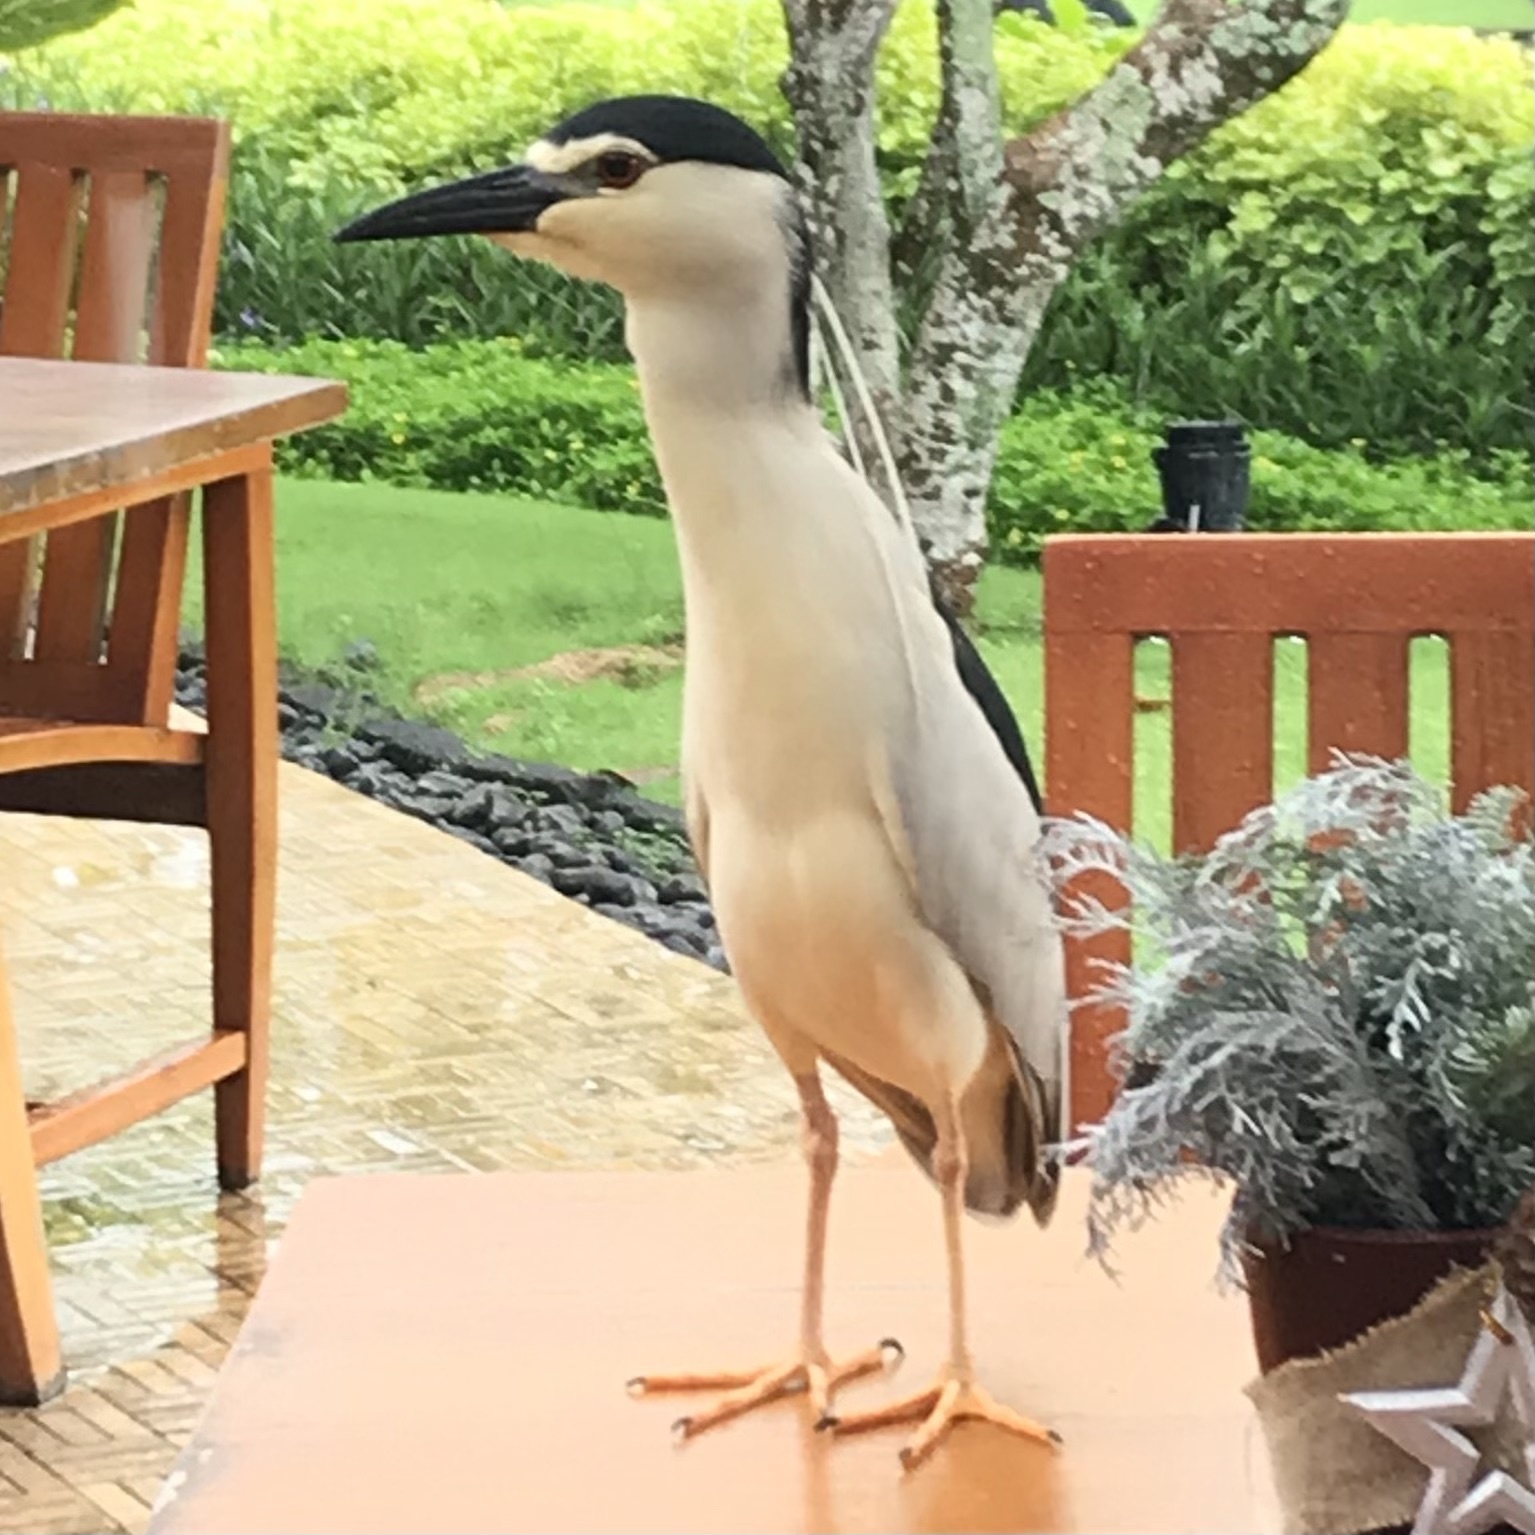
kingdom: Animalia
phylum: Chordata
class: Aves
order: Pelecaniformes
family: Ardeidae
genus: Nycticorax
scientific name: Nycticorax nycticorax
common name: Black-crowned night heron
